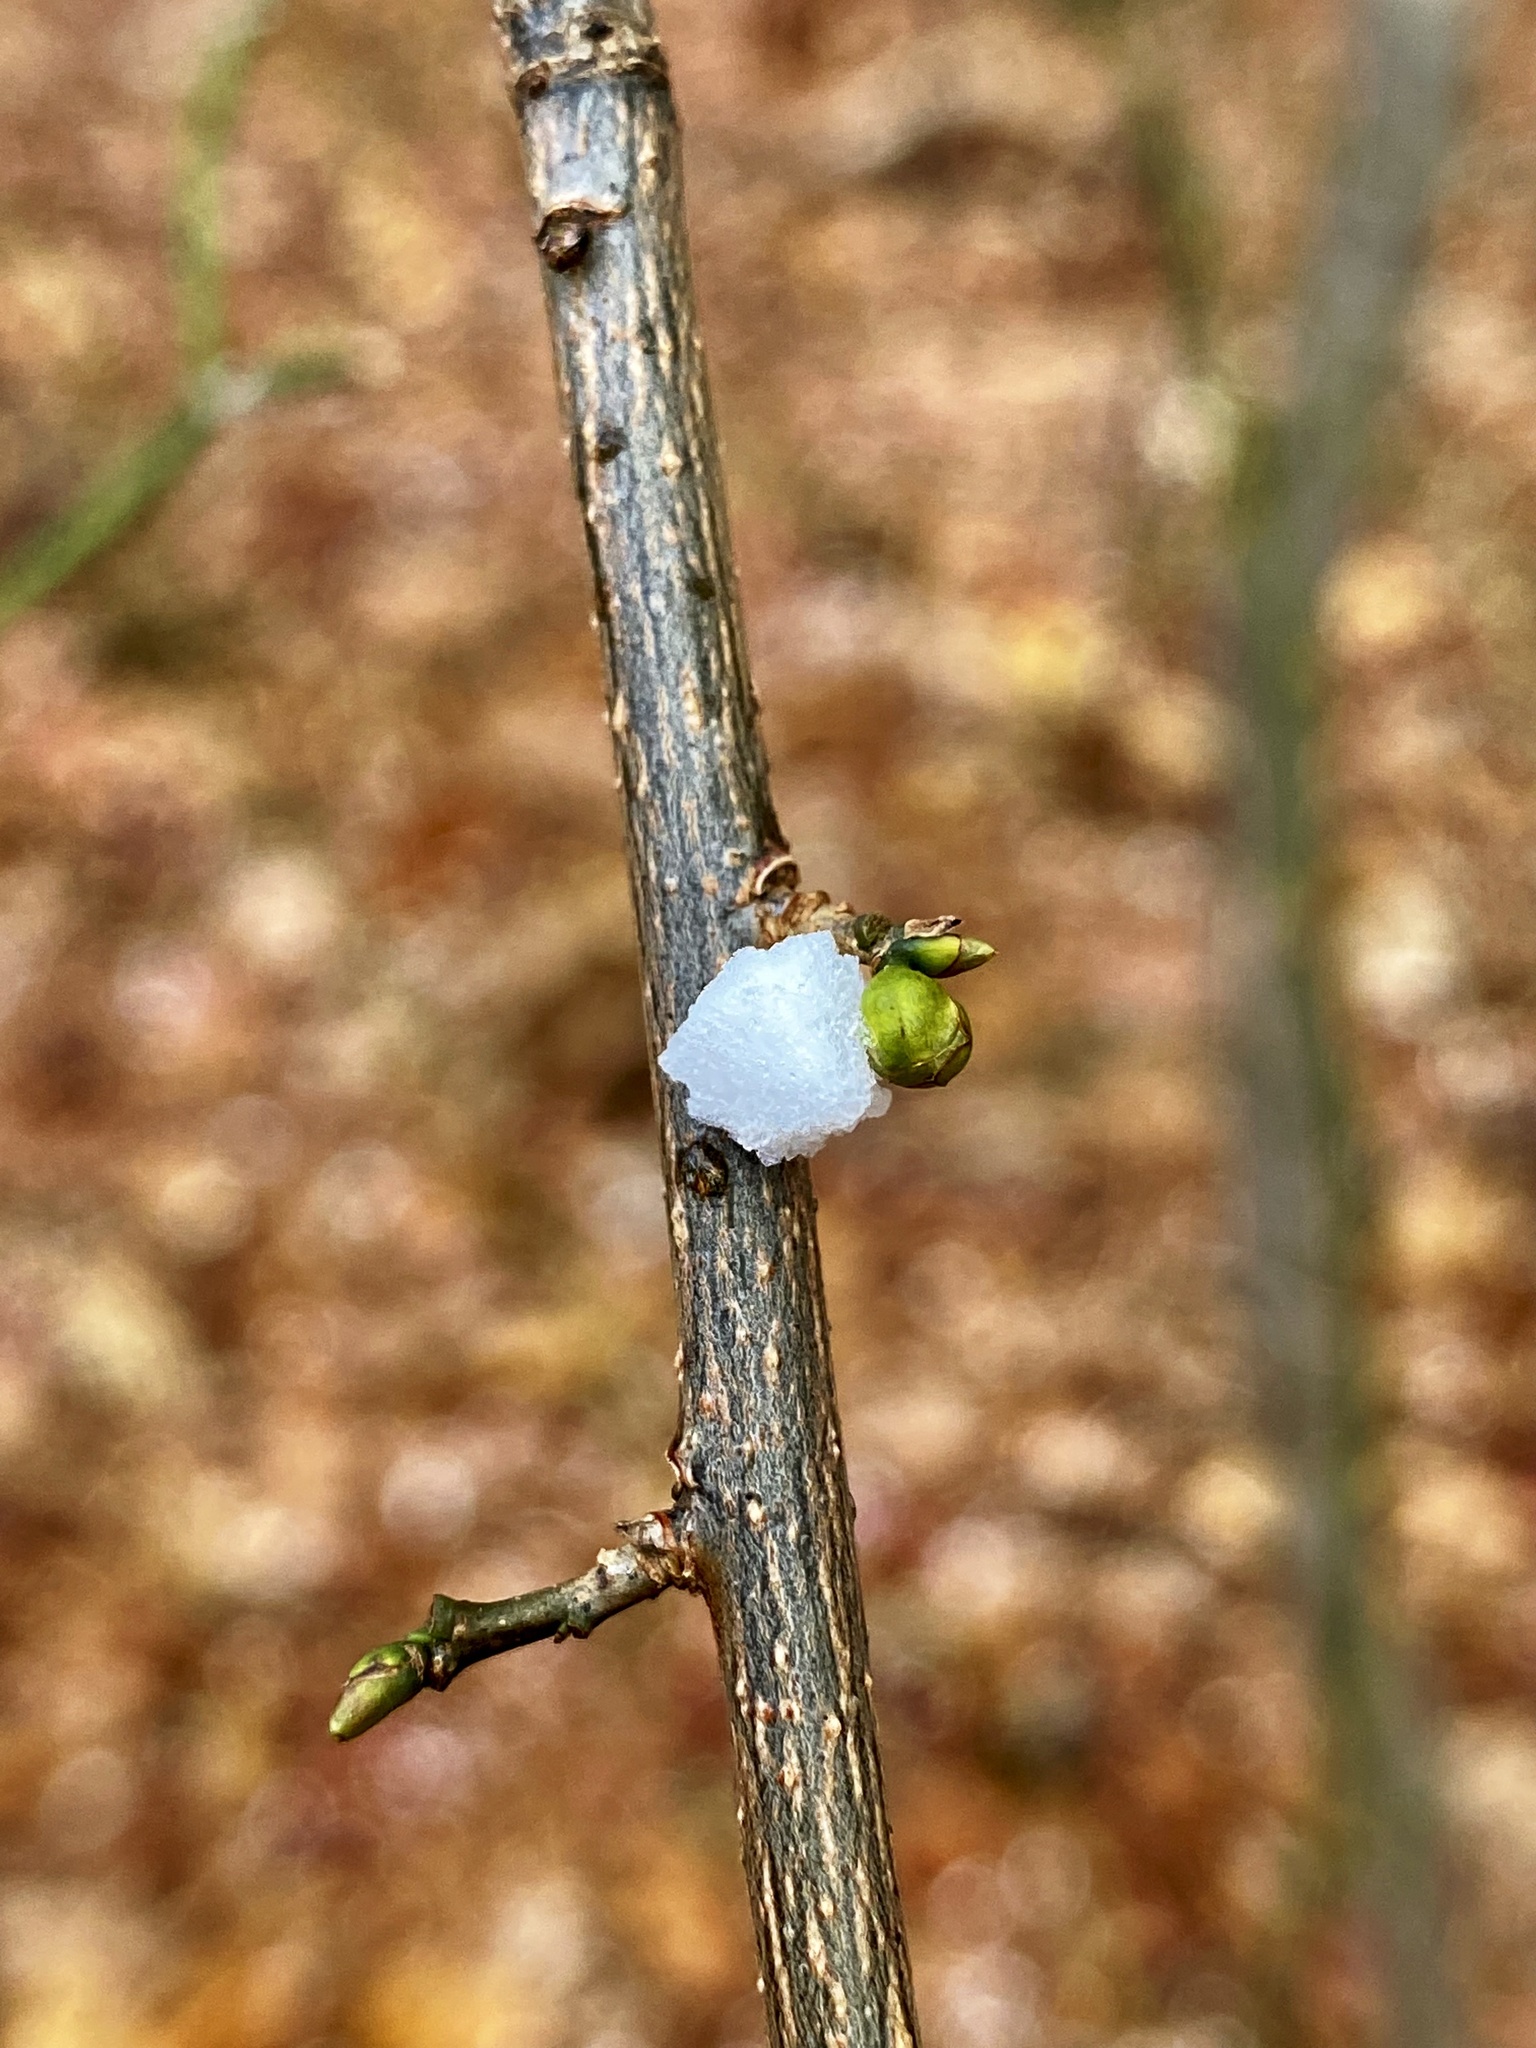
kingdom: Plantae
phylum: Tracheophyta
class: Magnoliopsida
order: Laurales
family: Lauraceae
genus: Lindera
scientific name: Lindera benzoin
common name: Spicebush
